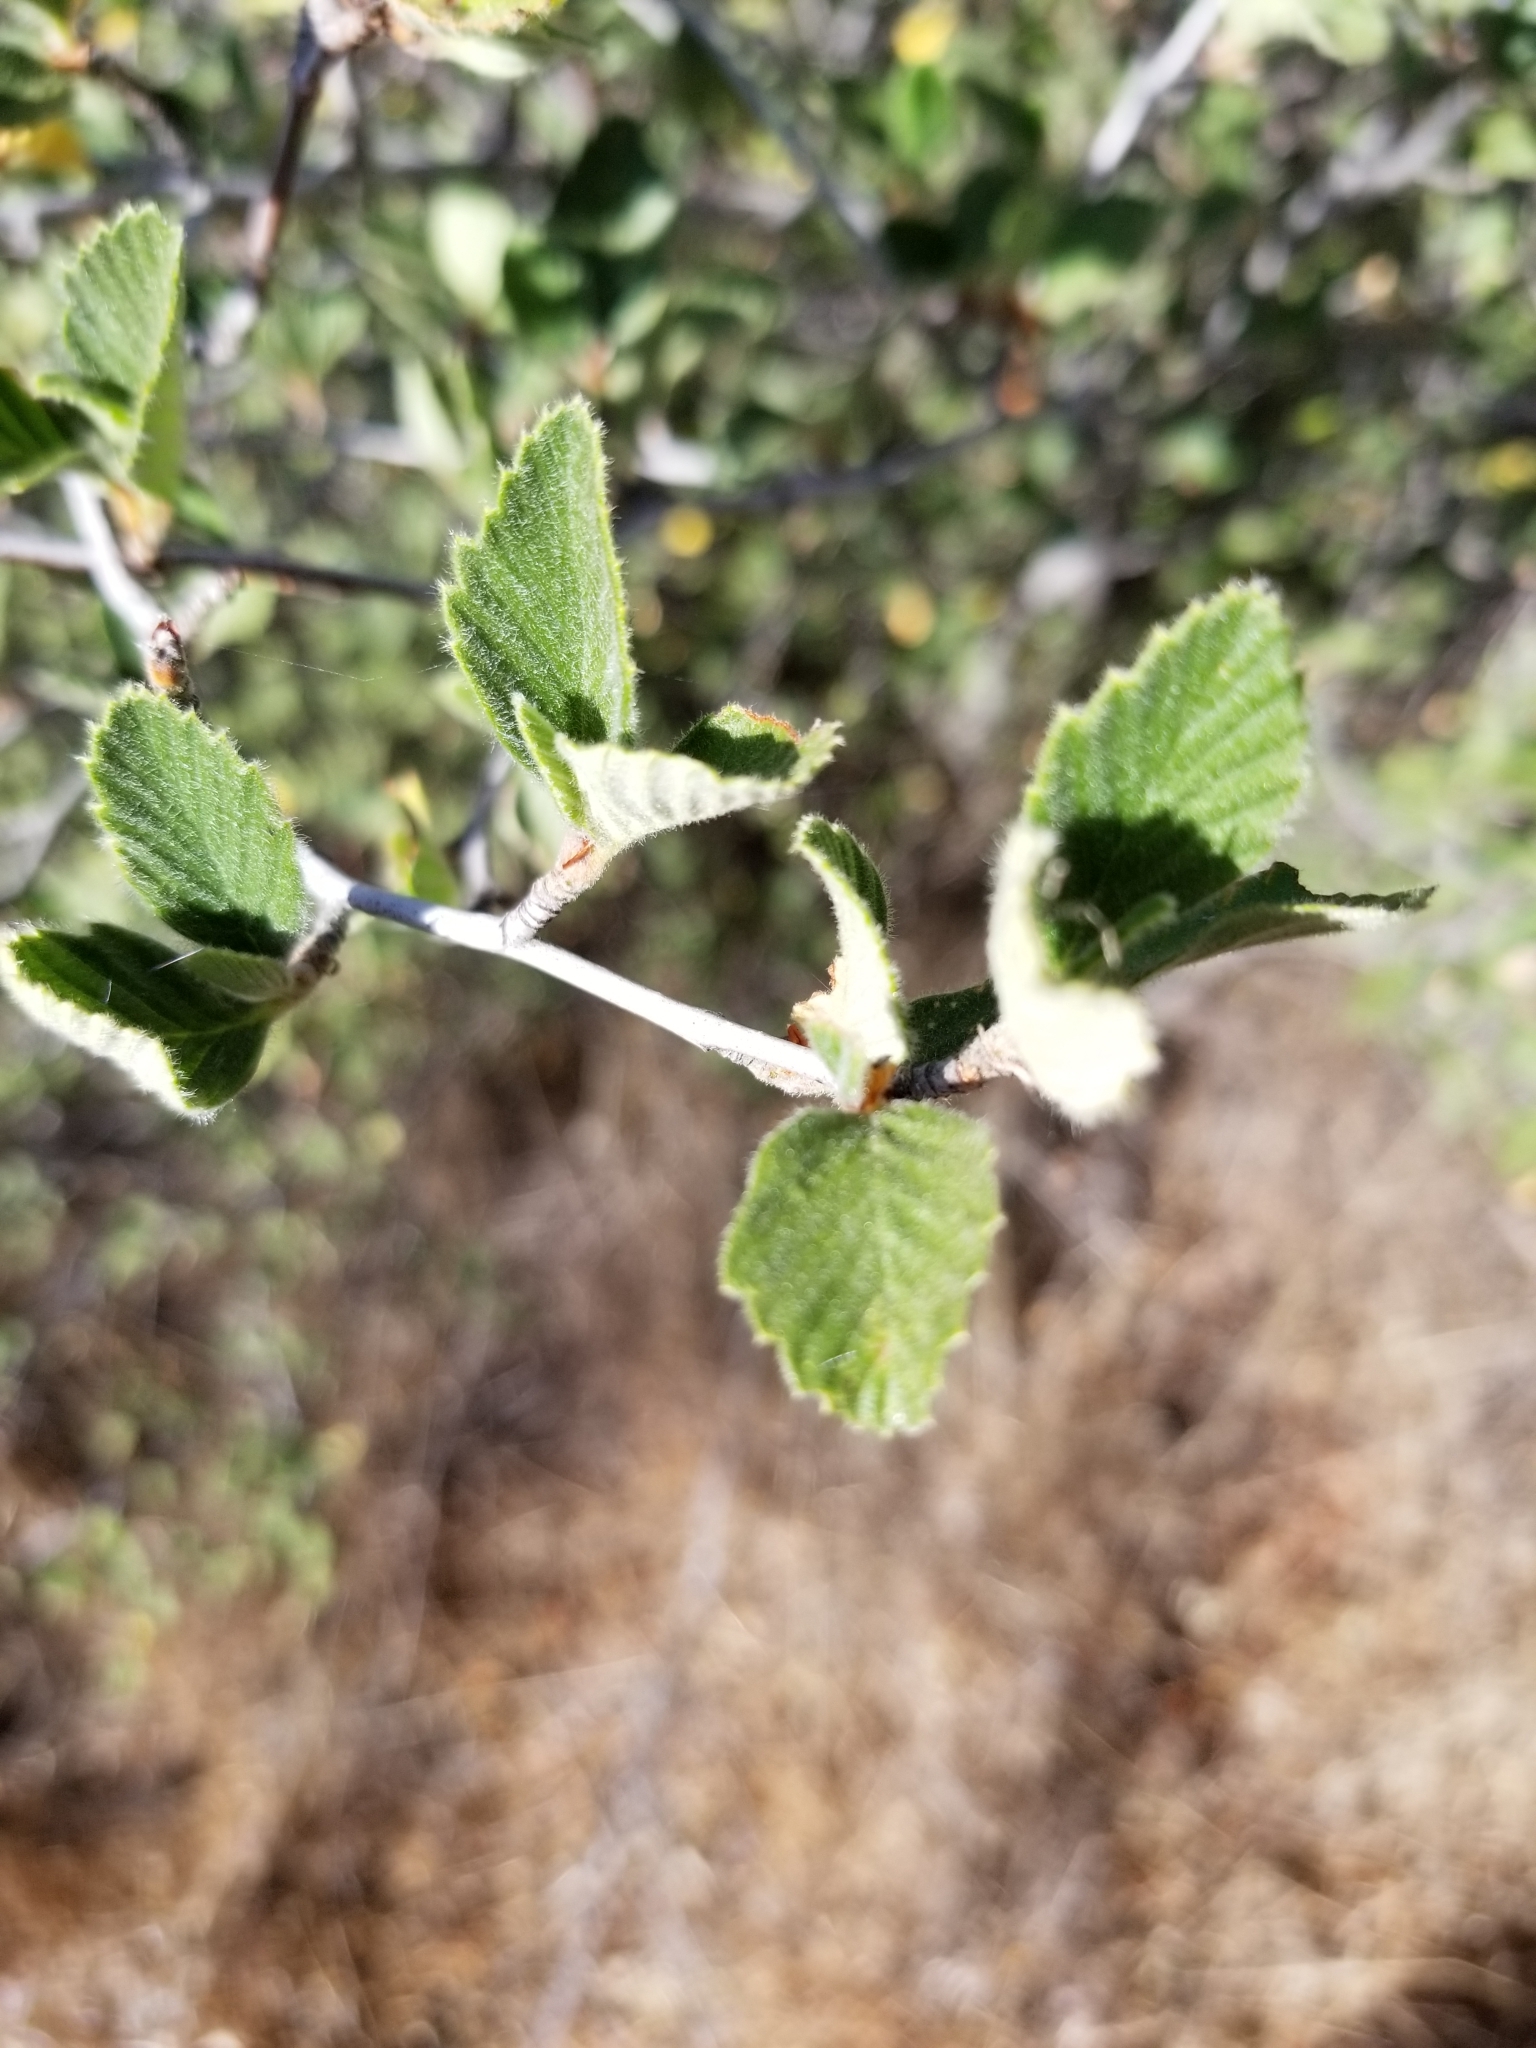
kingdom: Plantae
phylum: Tracheophyta
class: Magnoliopsida
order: Rosales
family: Rosaceae
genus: Cercocarpus
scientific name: Cercocarpus betuloides
